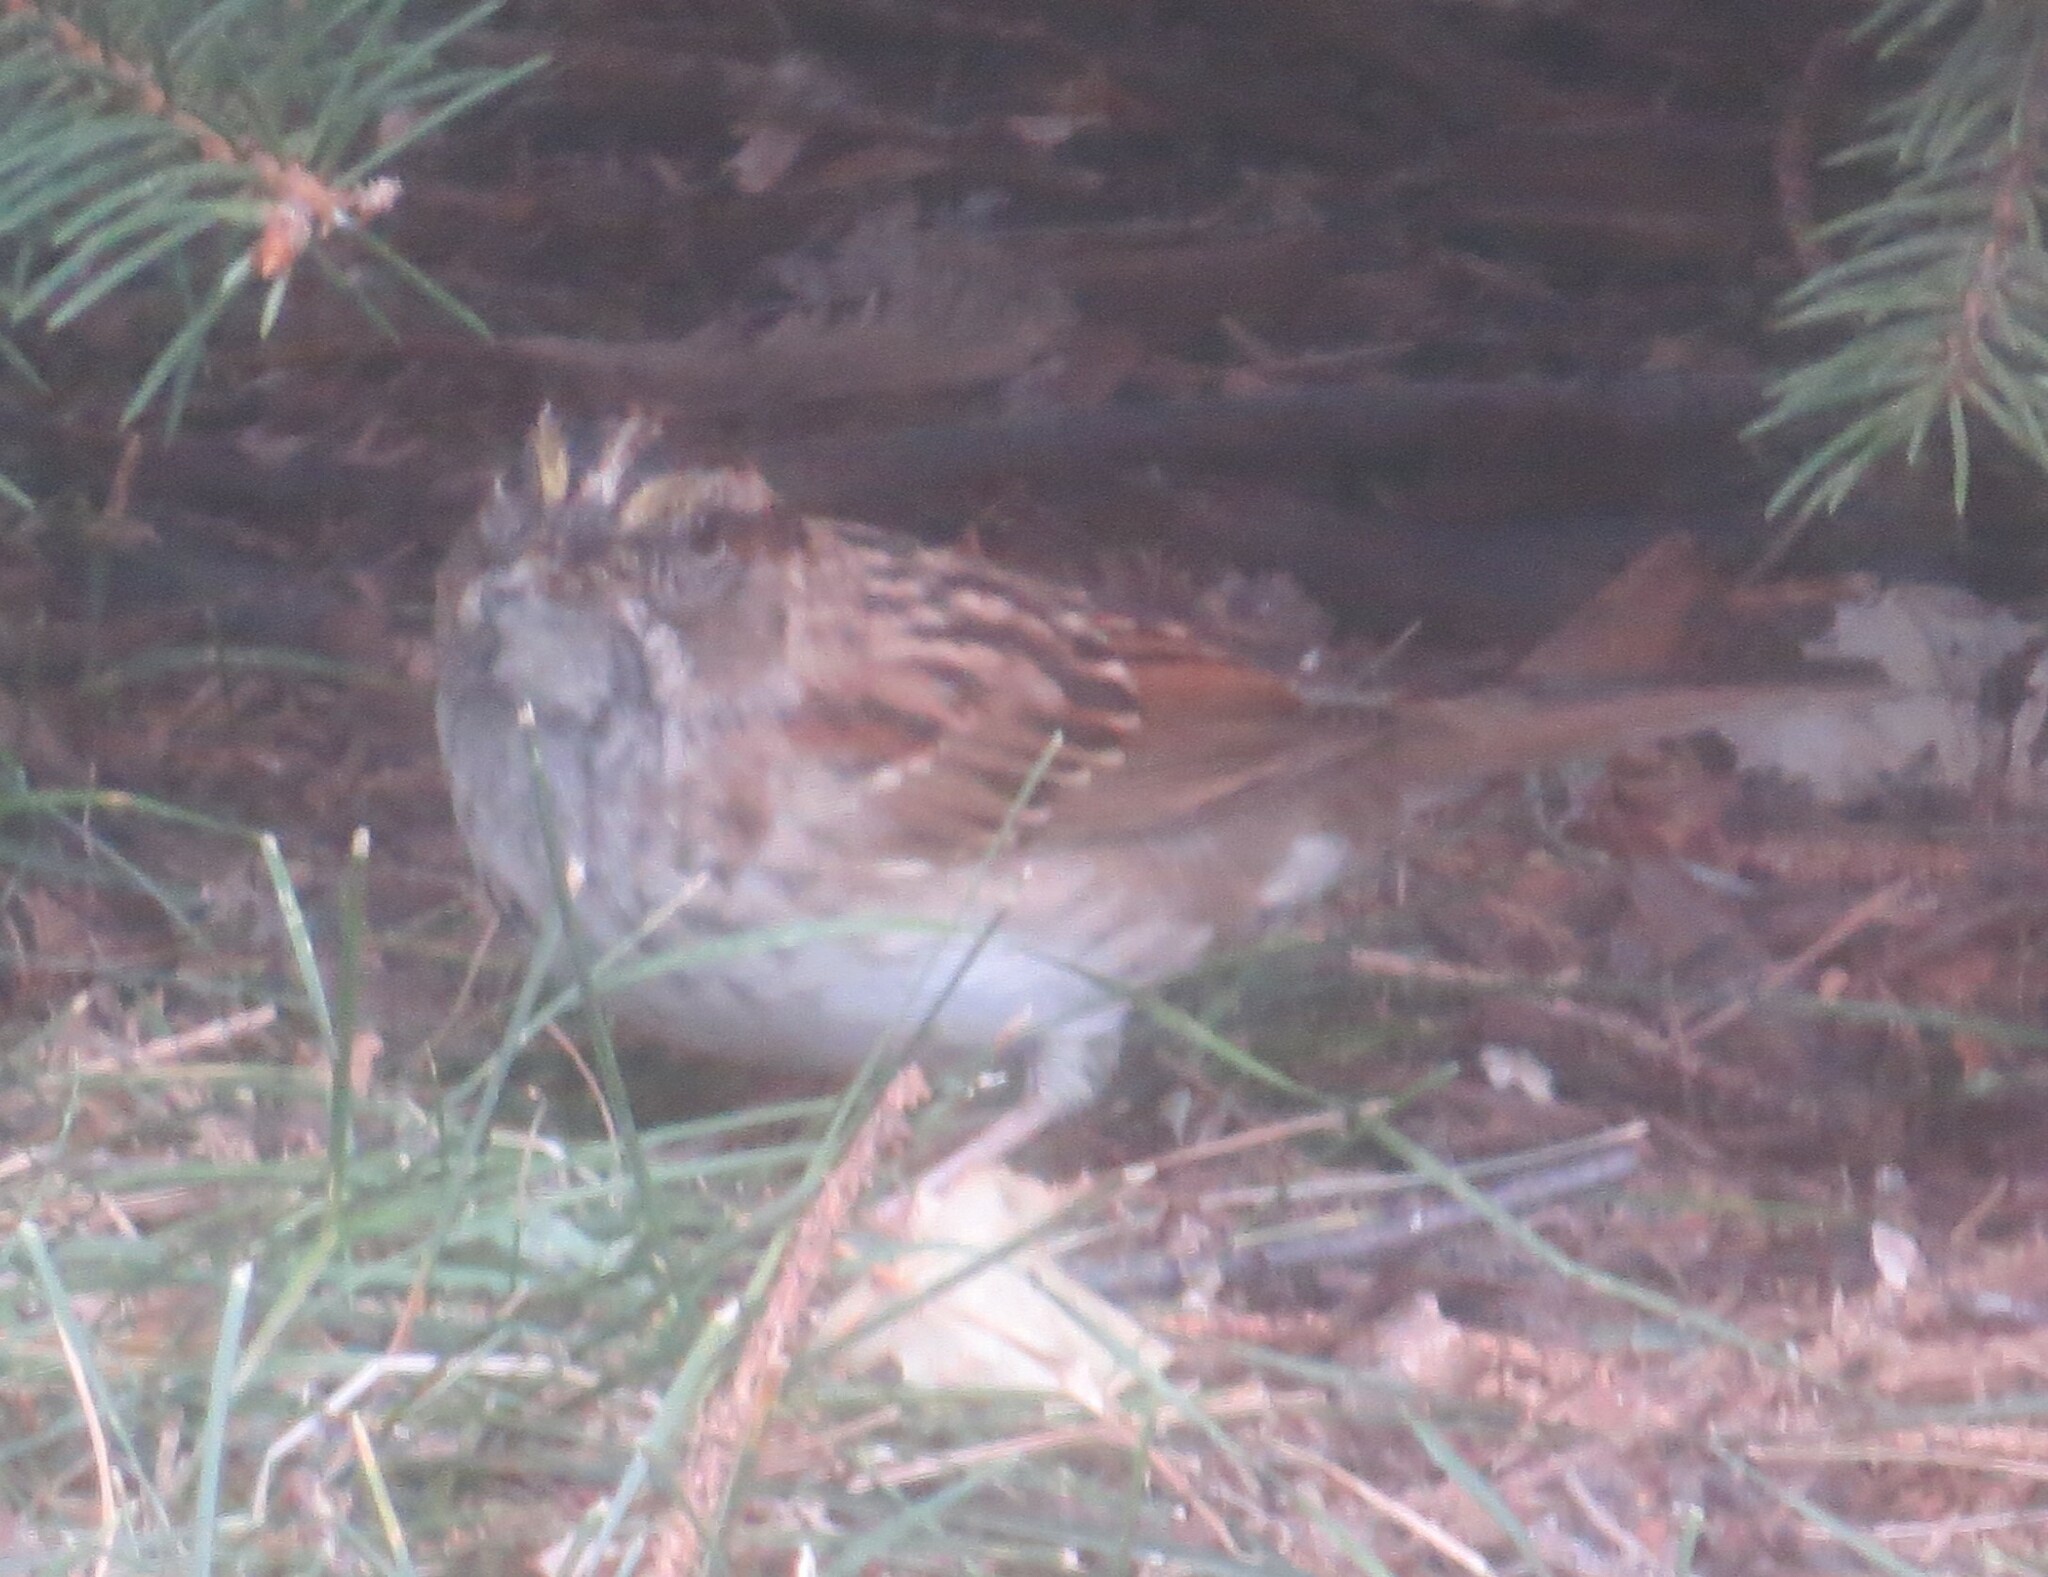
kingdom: Animalia
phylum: Chordata
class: Aves
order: Passeriformes
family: Passerellidae
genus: Zonotrichia
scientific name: Zonotrichia albicollis
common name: White-throated sparrow
